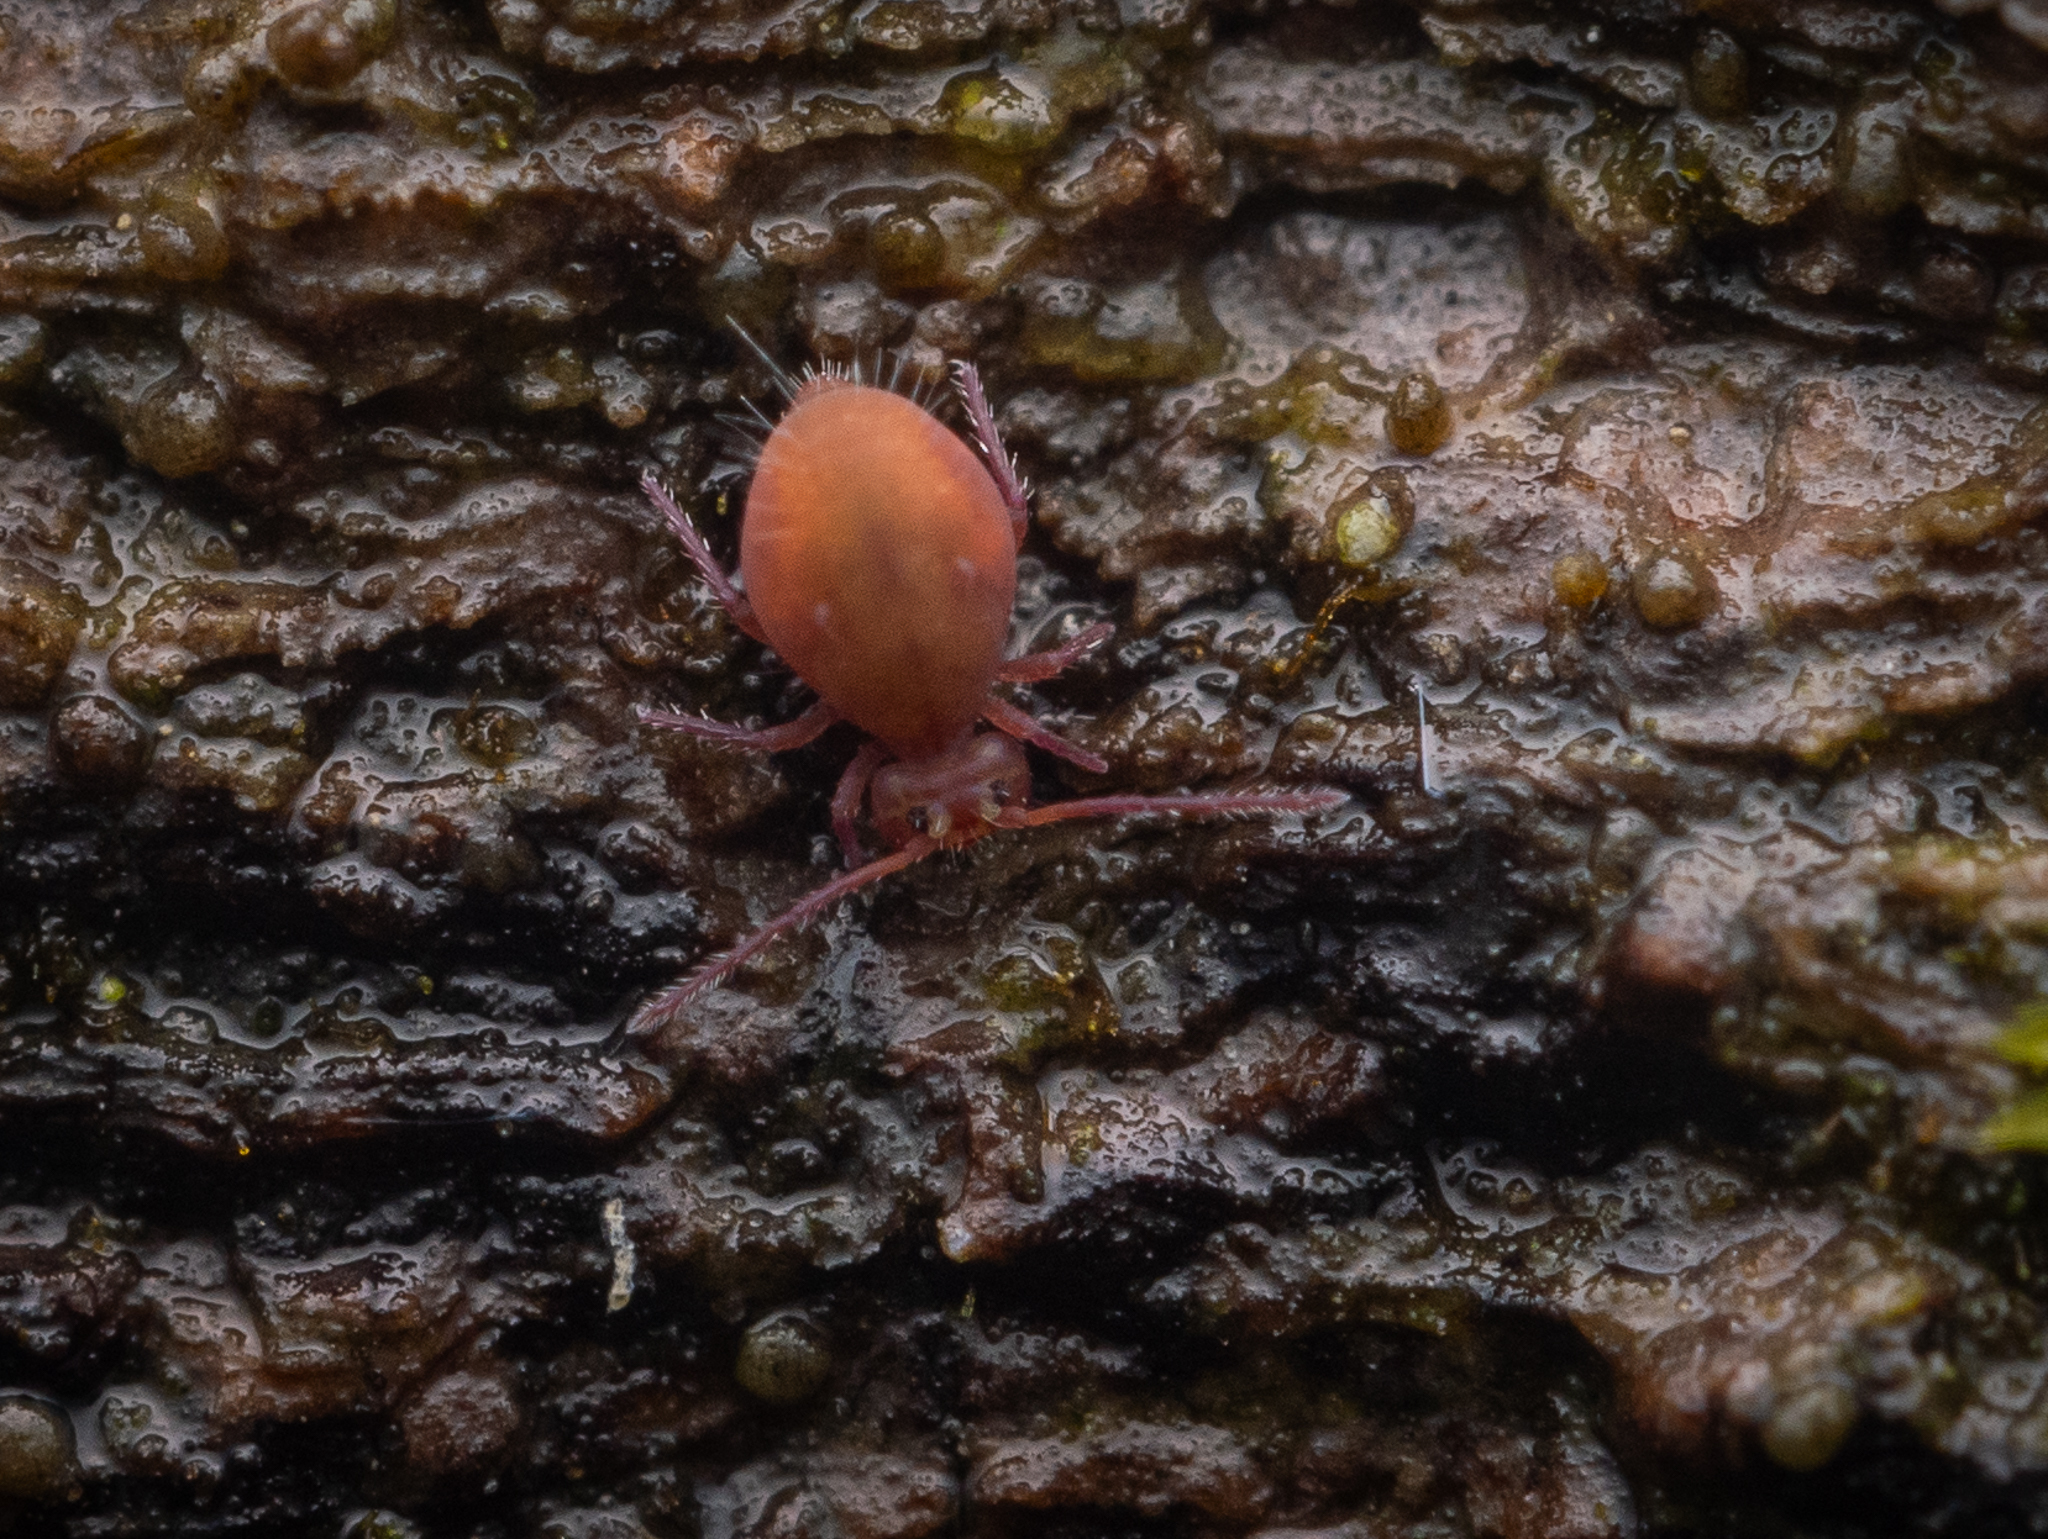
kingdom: Animalia
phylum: Arthropoda
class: Collembola
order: Symphypleona
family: Dicyrtomidae
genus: Dicyrtoma
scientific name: Dicyrtoma fusca
